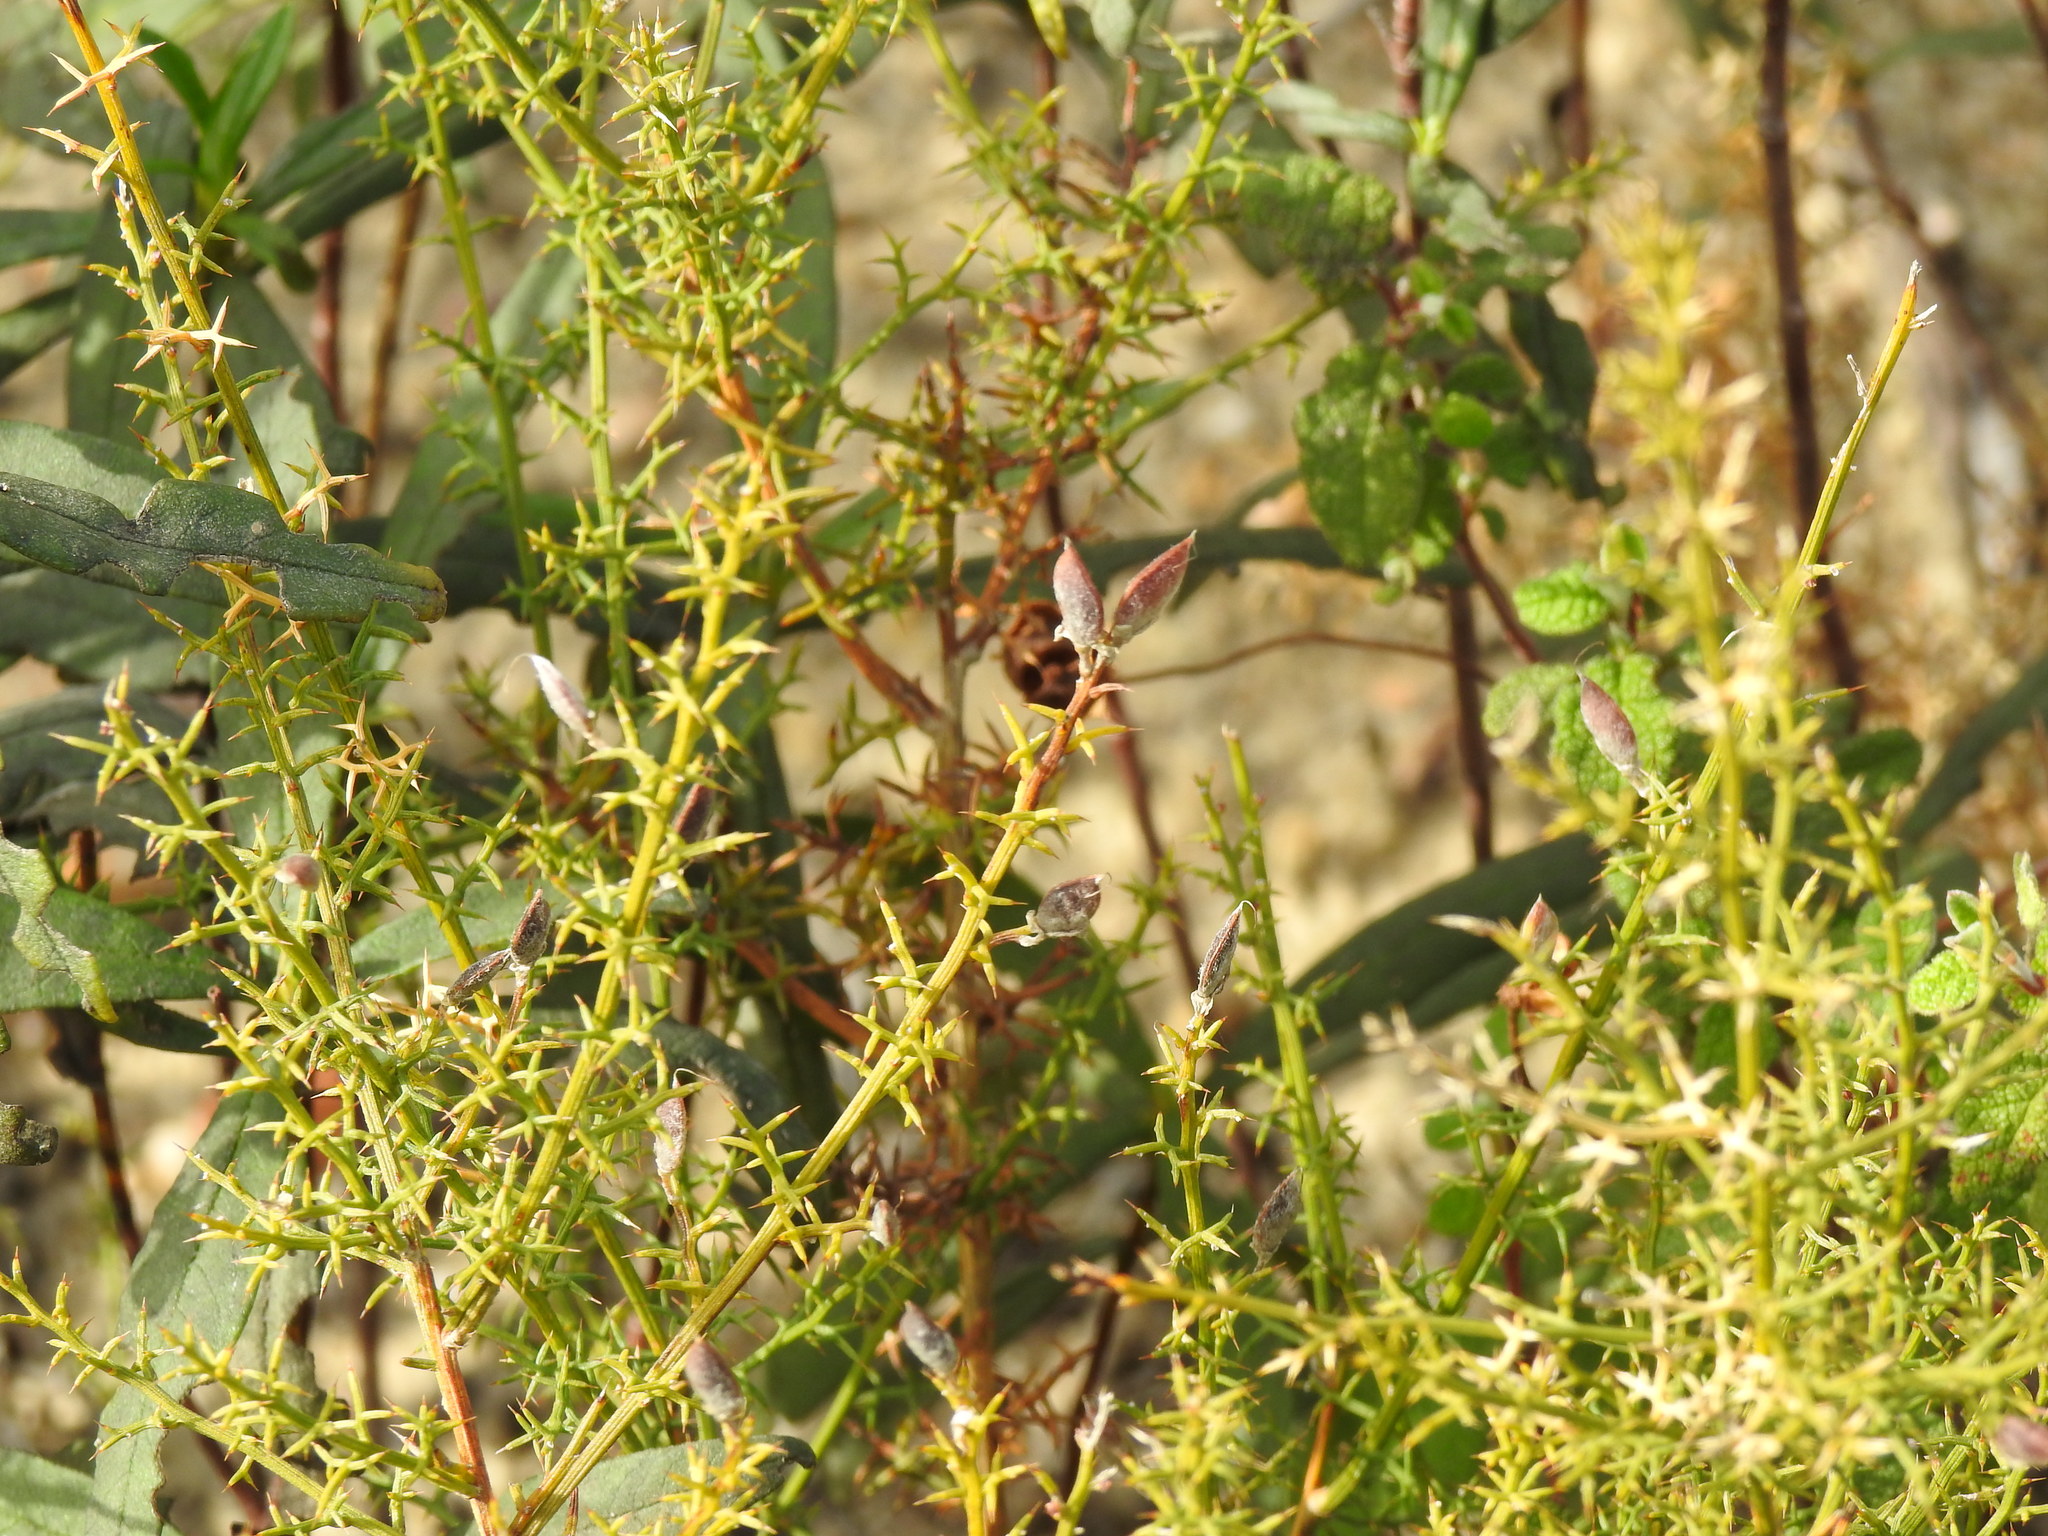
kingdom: Plantae
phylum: Tracheophyta
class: Magnoliopsida
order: Fabales
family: Fabaceae
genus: Stauracanthus
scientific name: Stauracanthus boivinii
